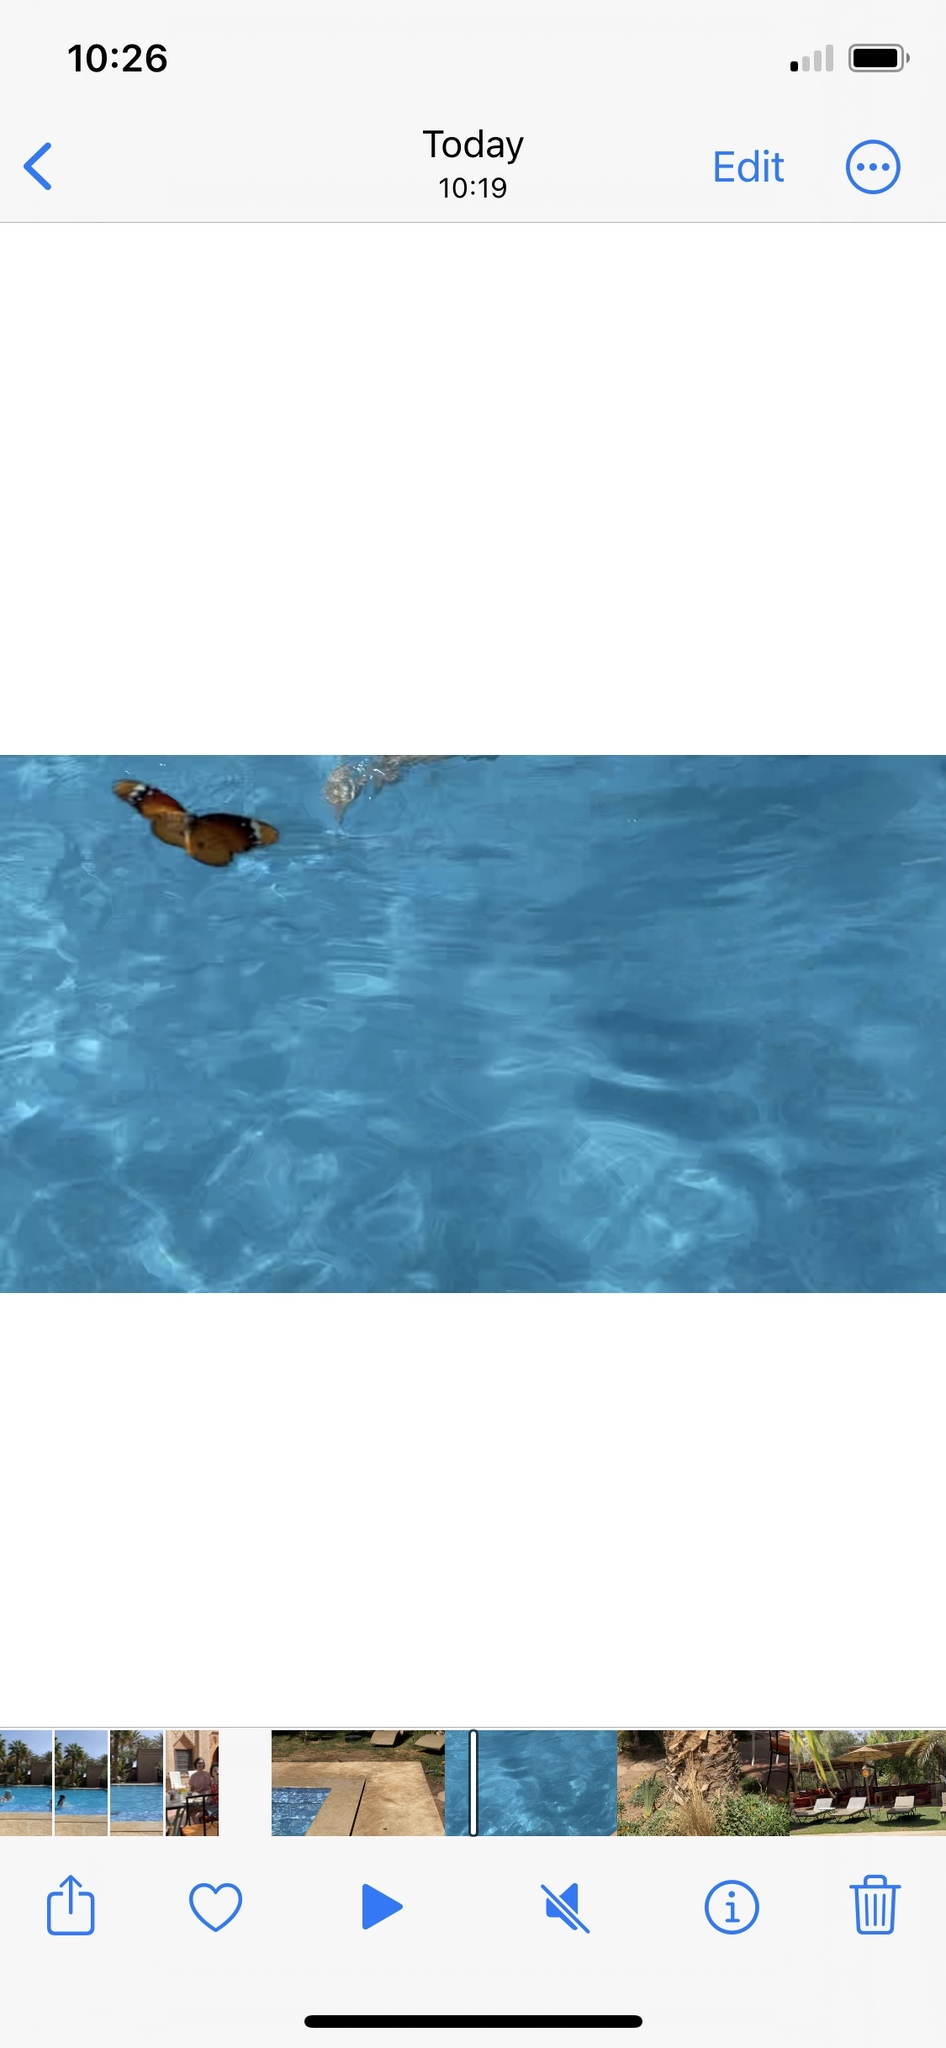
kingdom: Animalia
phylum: Arthropoda
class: Insecta
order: Lepidoptera
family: Nymphalidae
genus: Danaus
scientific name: Danaus chrysippus
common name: Plain tiger
